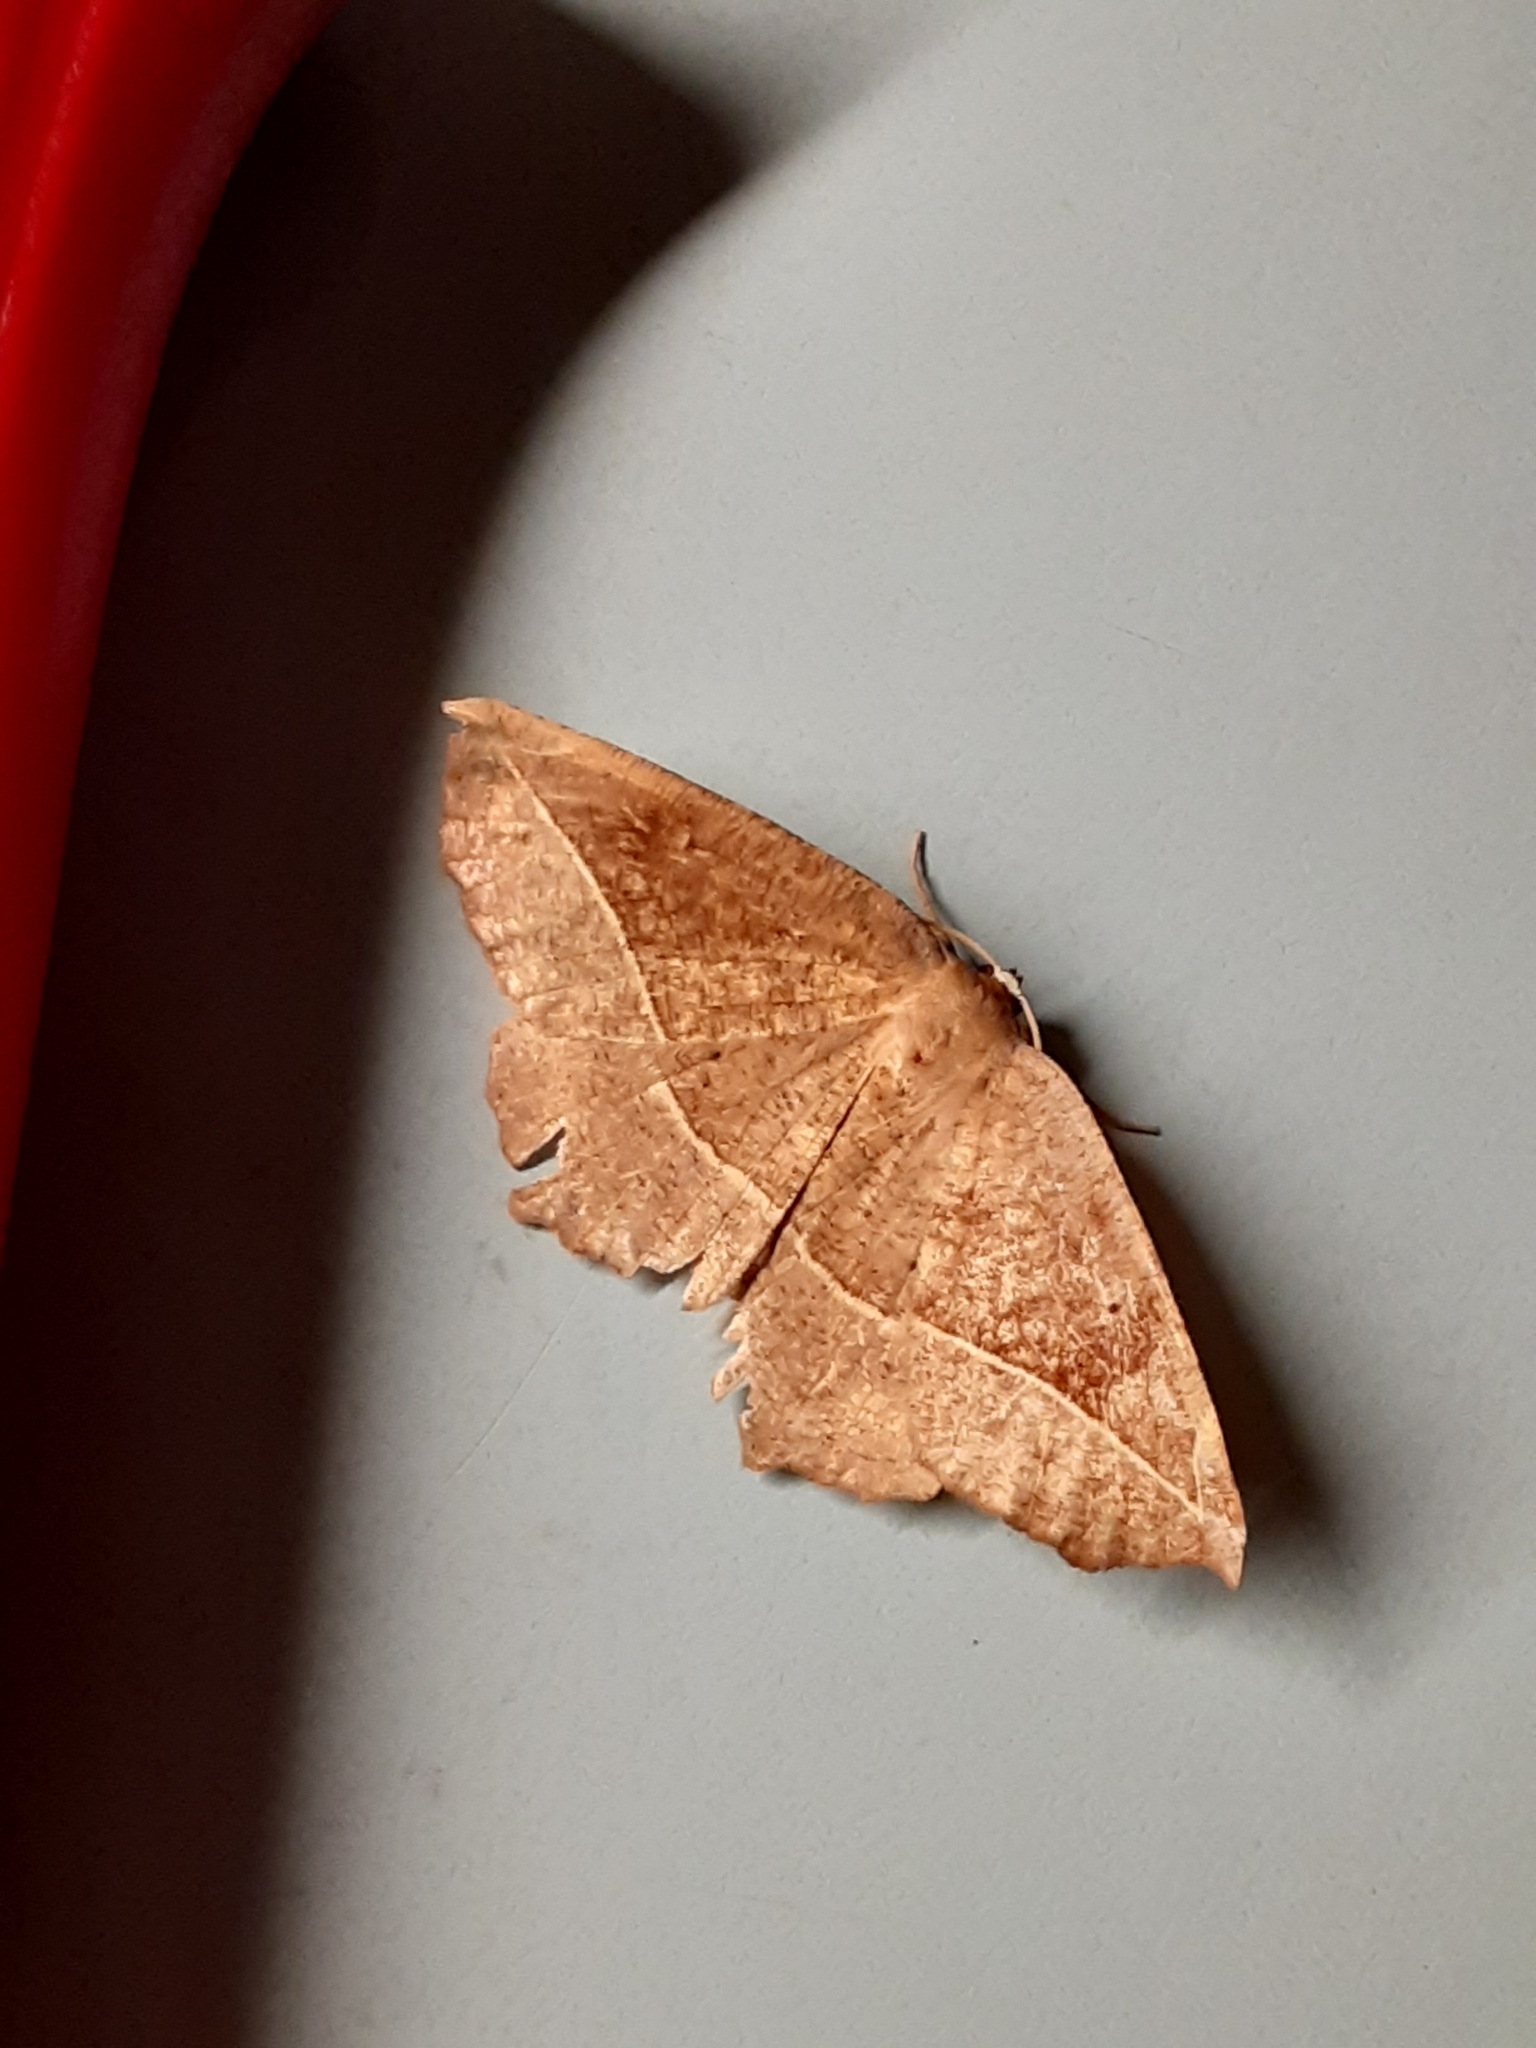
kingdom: Animalia
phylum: Arthropoda
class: Insecta
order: Lepidoptera
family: Geometridae
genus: Eutrapela
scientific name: Eutrapela clemataria
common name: Curved-toothed geometer
